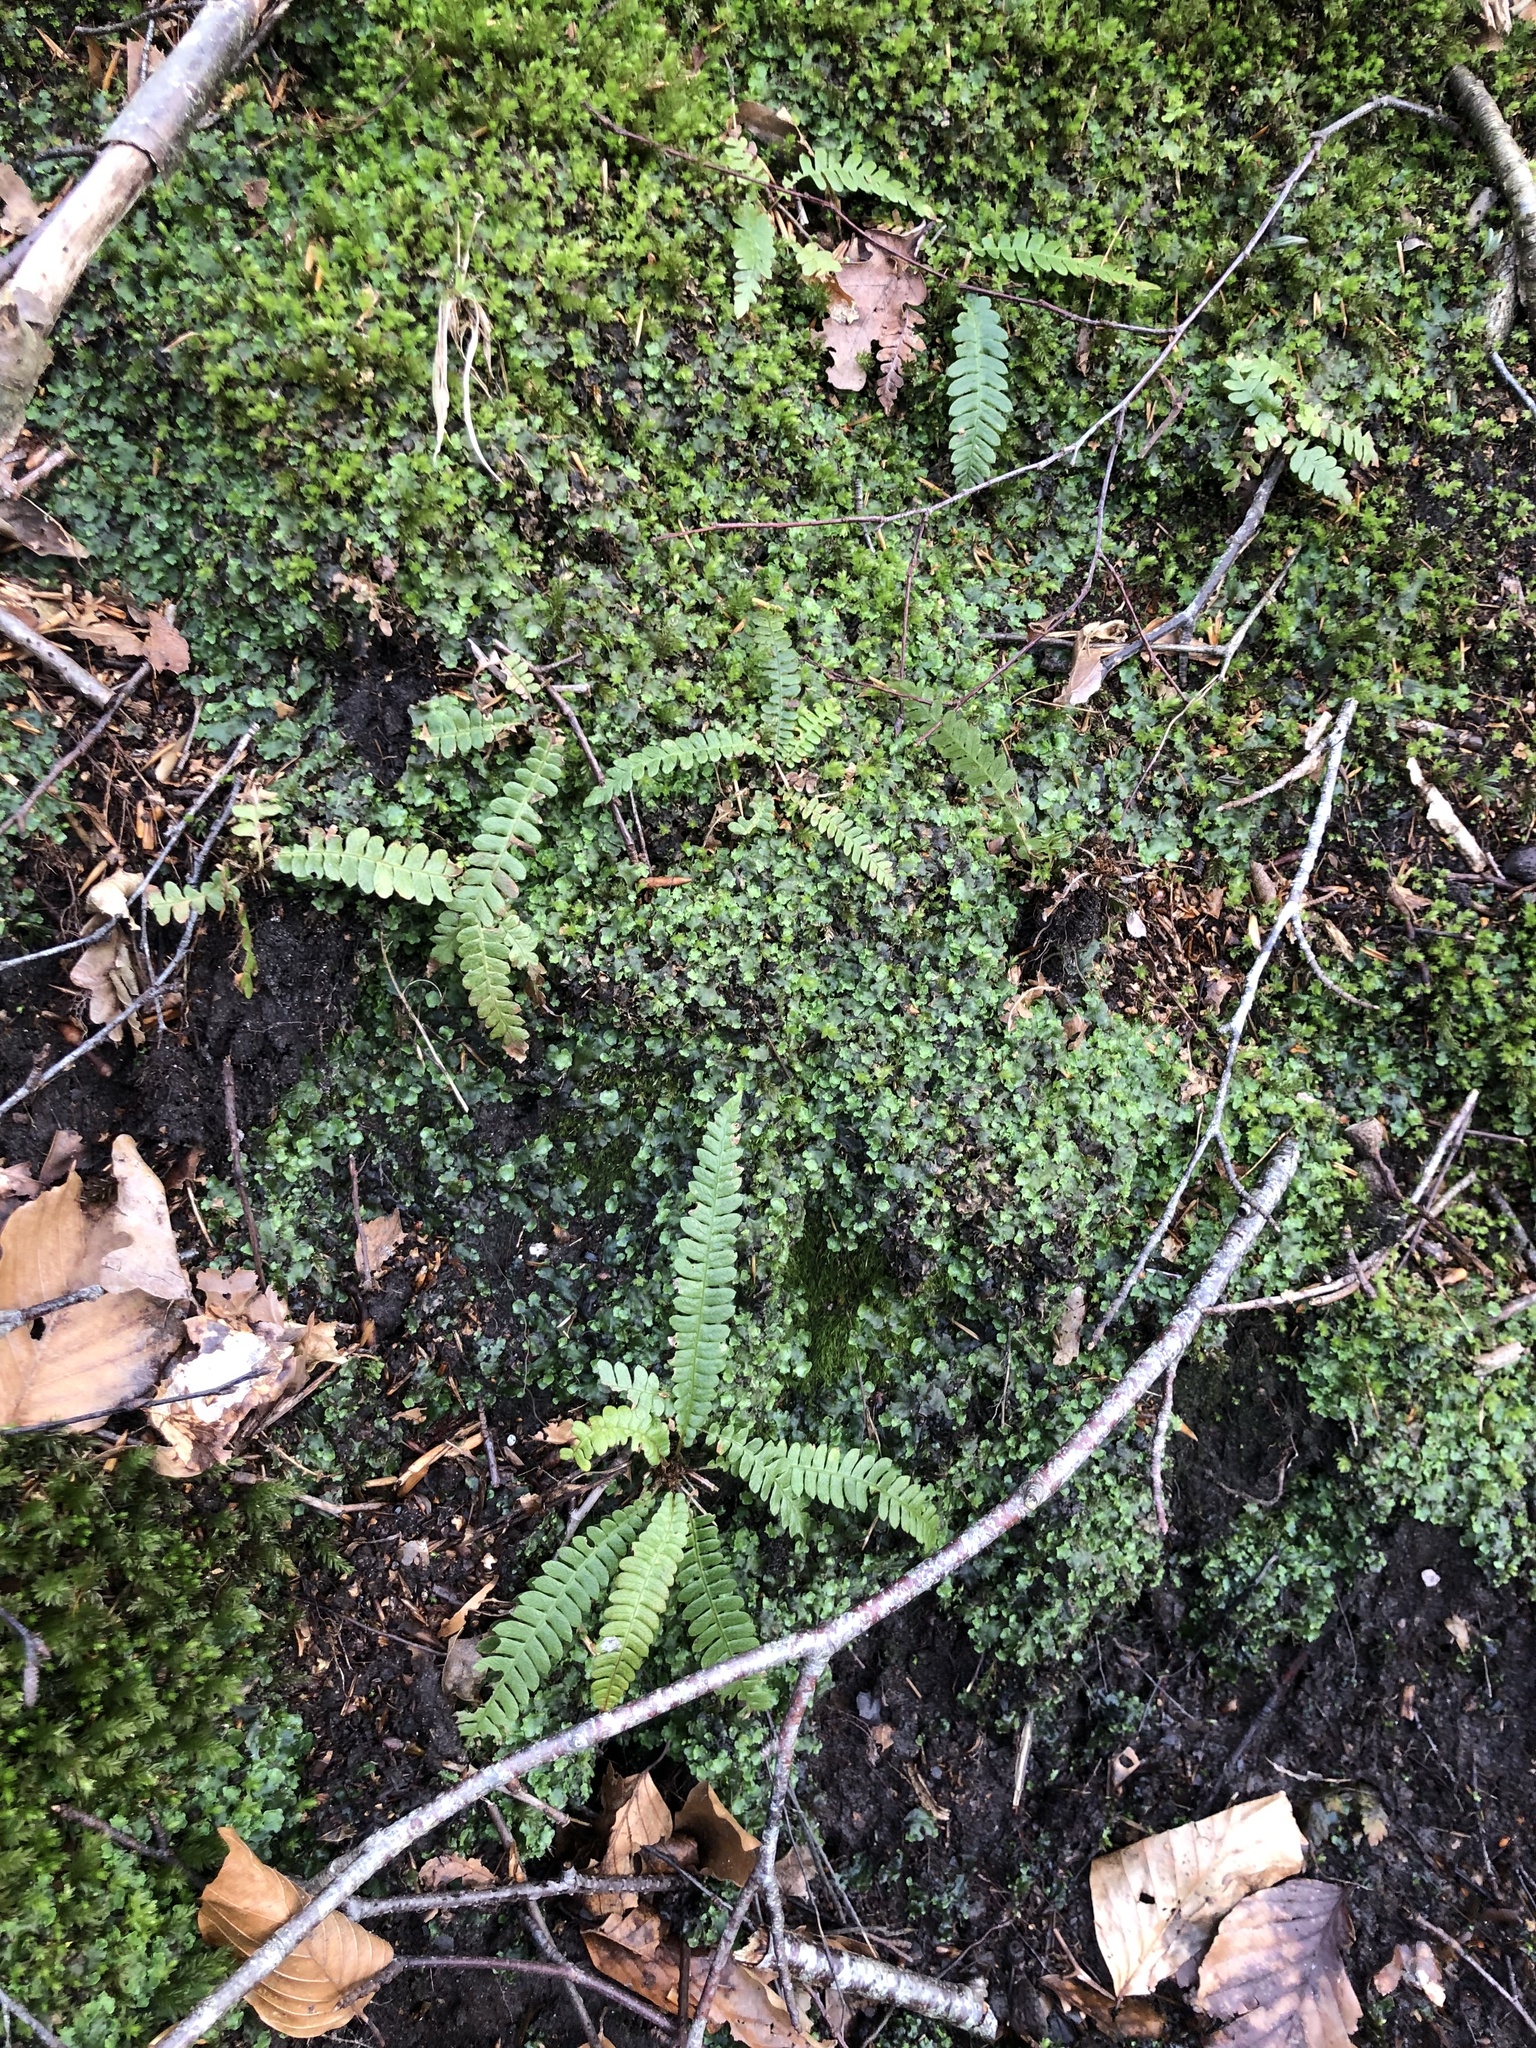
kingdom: Plantae
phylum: Tracheophyta
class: Polypodiopsida
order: Polypodiales
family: Blechnaceae
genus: Struthiopteris
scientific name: Struthiopteris spicant
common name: Deer fern
